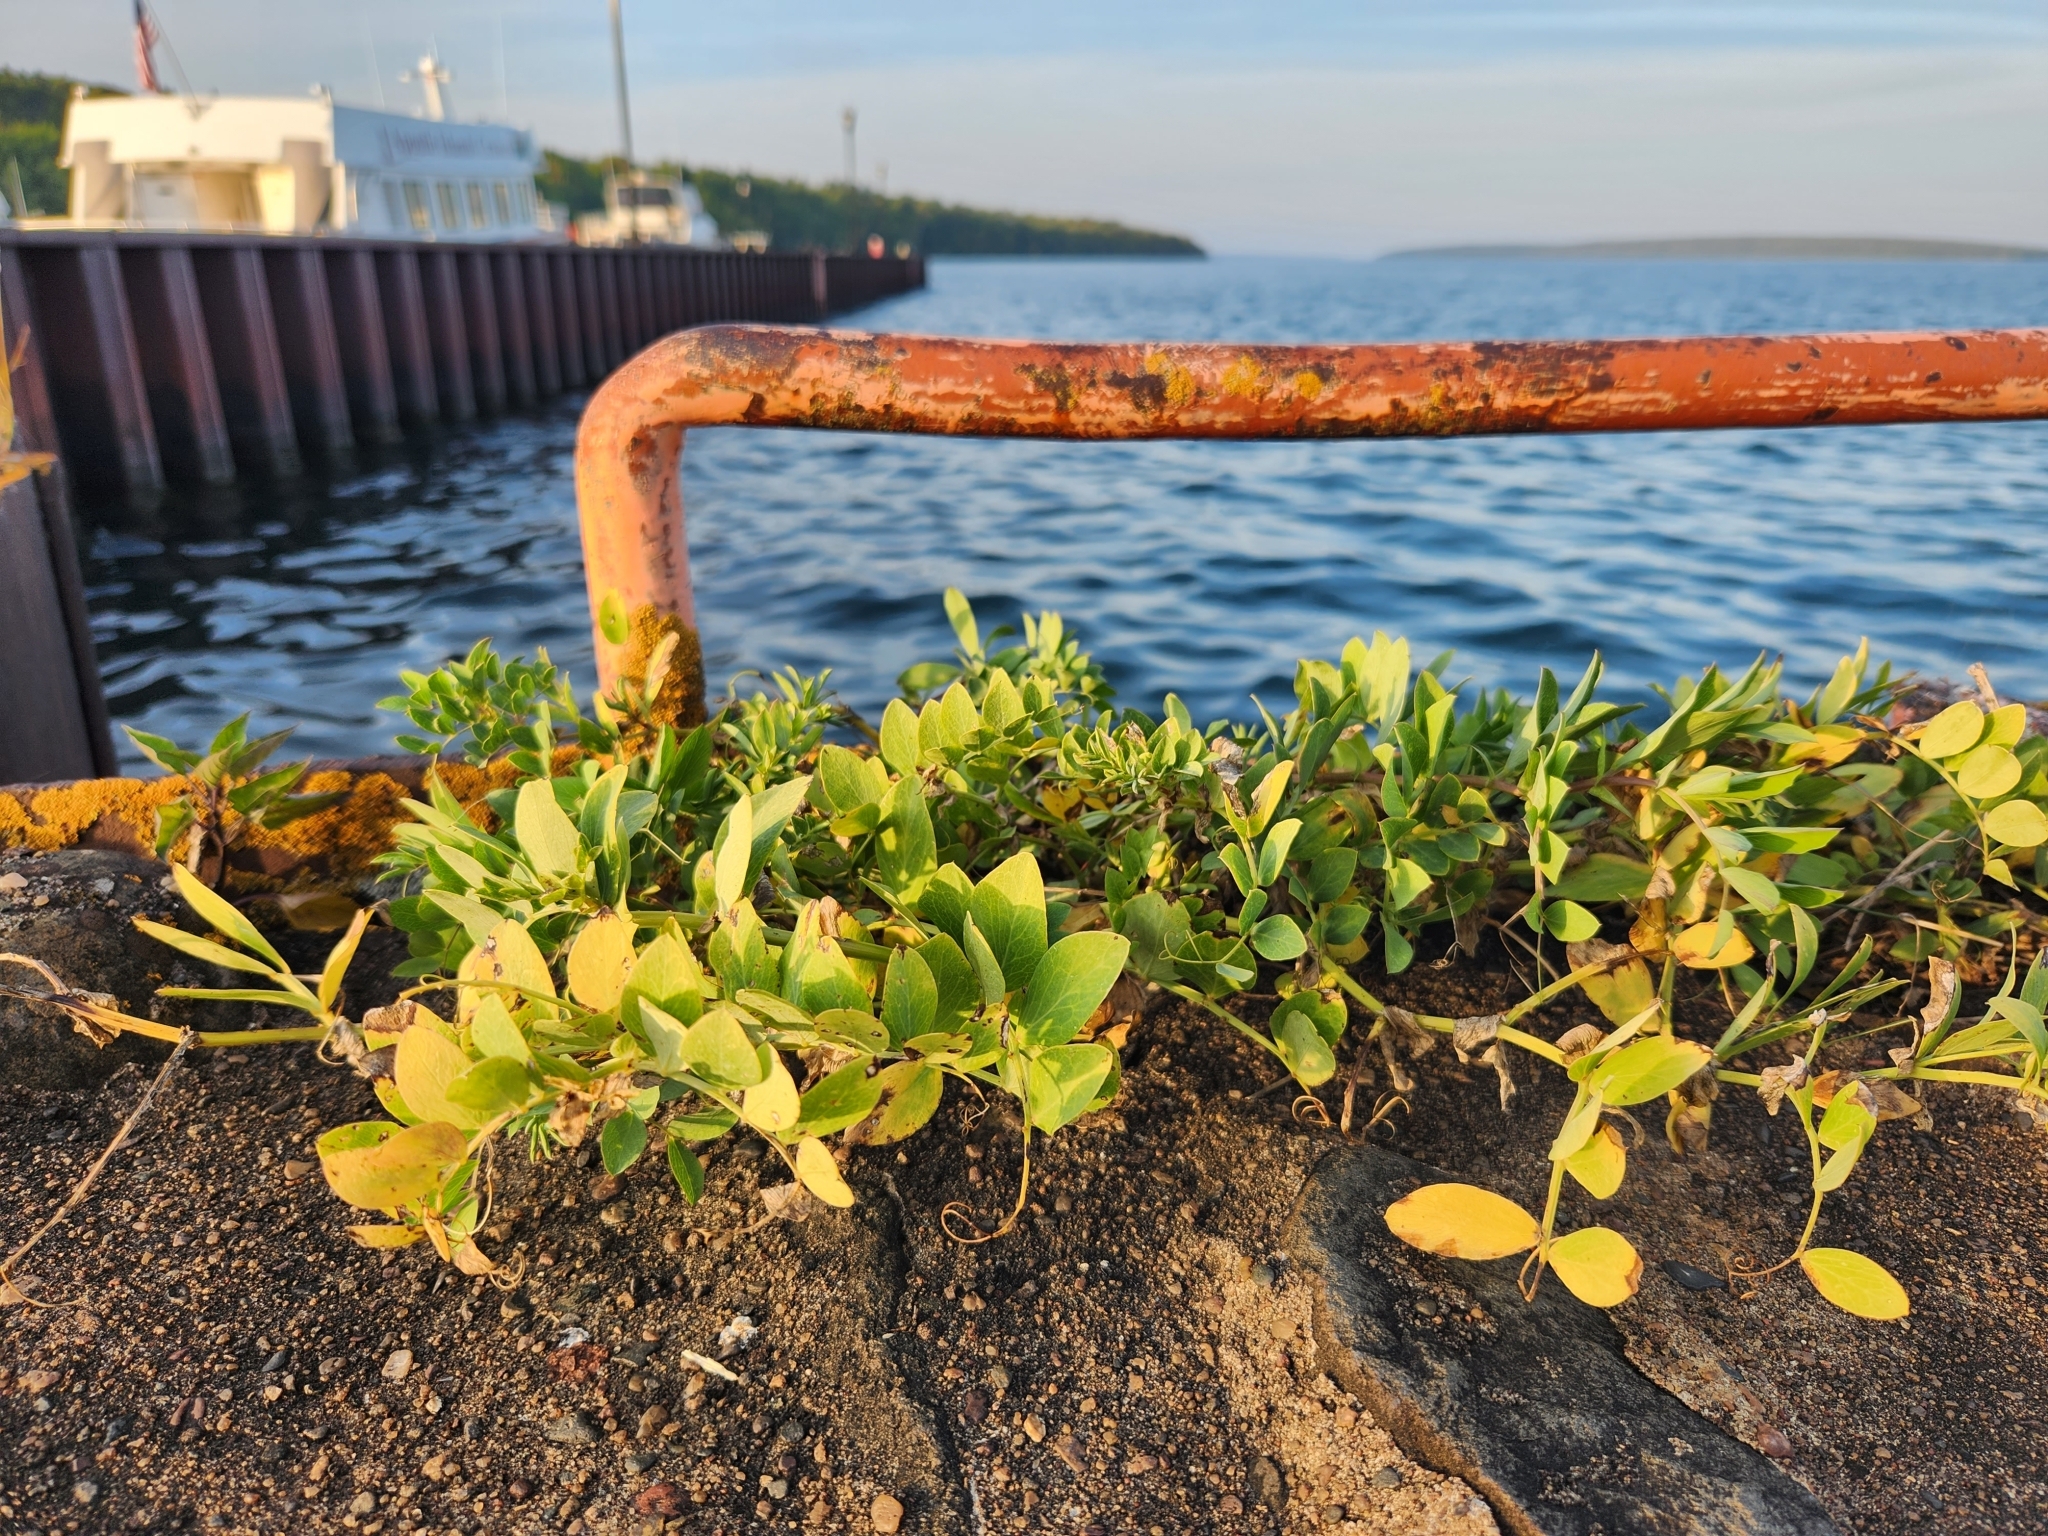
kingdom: Plantae
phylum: Tracheophyta
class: Magnoliopsida
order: Fabales
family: Fabaceae
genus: Lathyrus
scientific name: Lathyrus japonicus
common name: Sea pea
